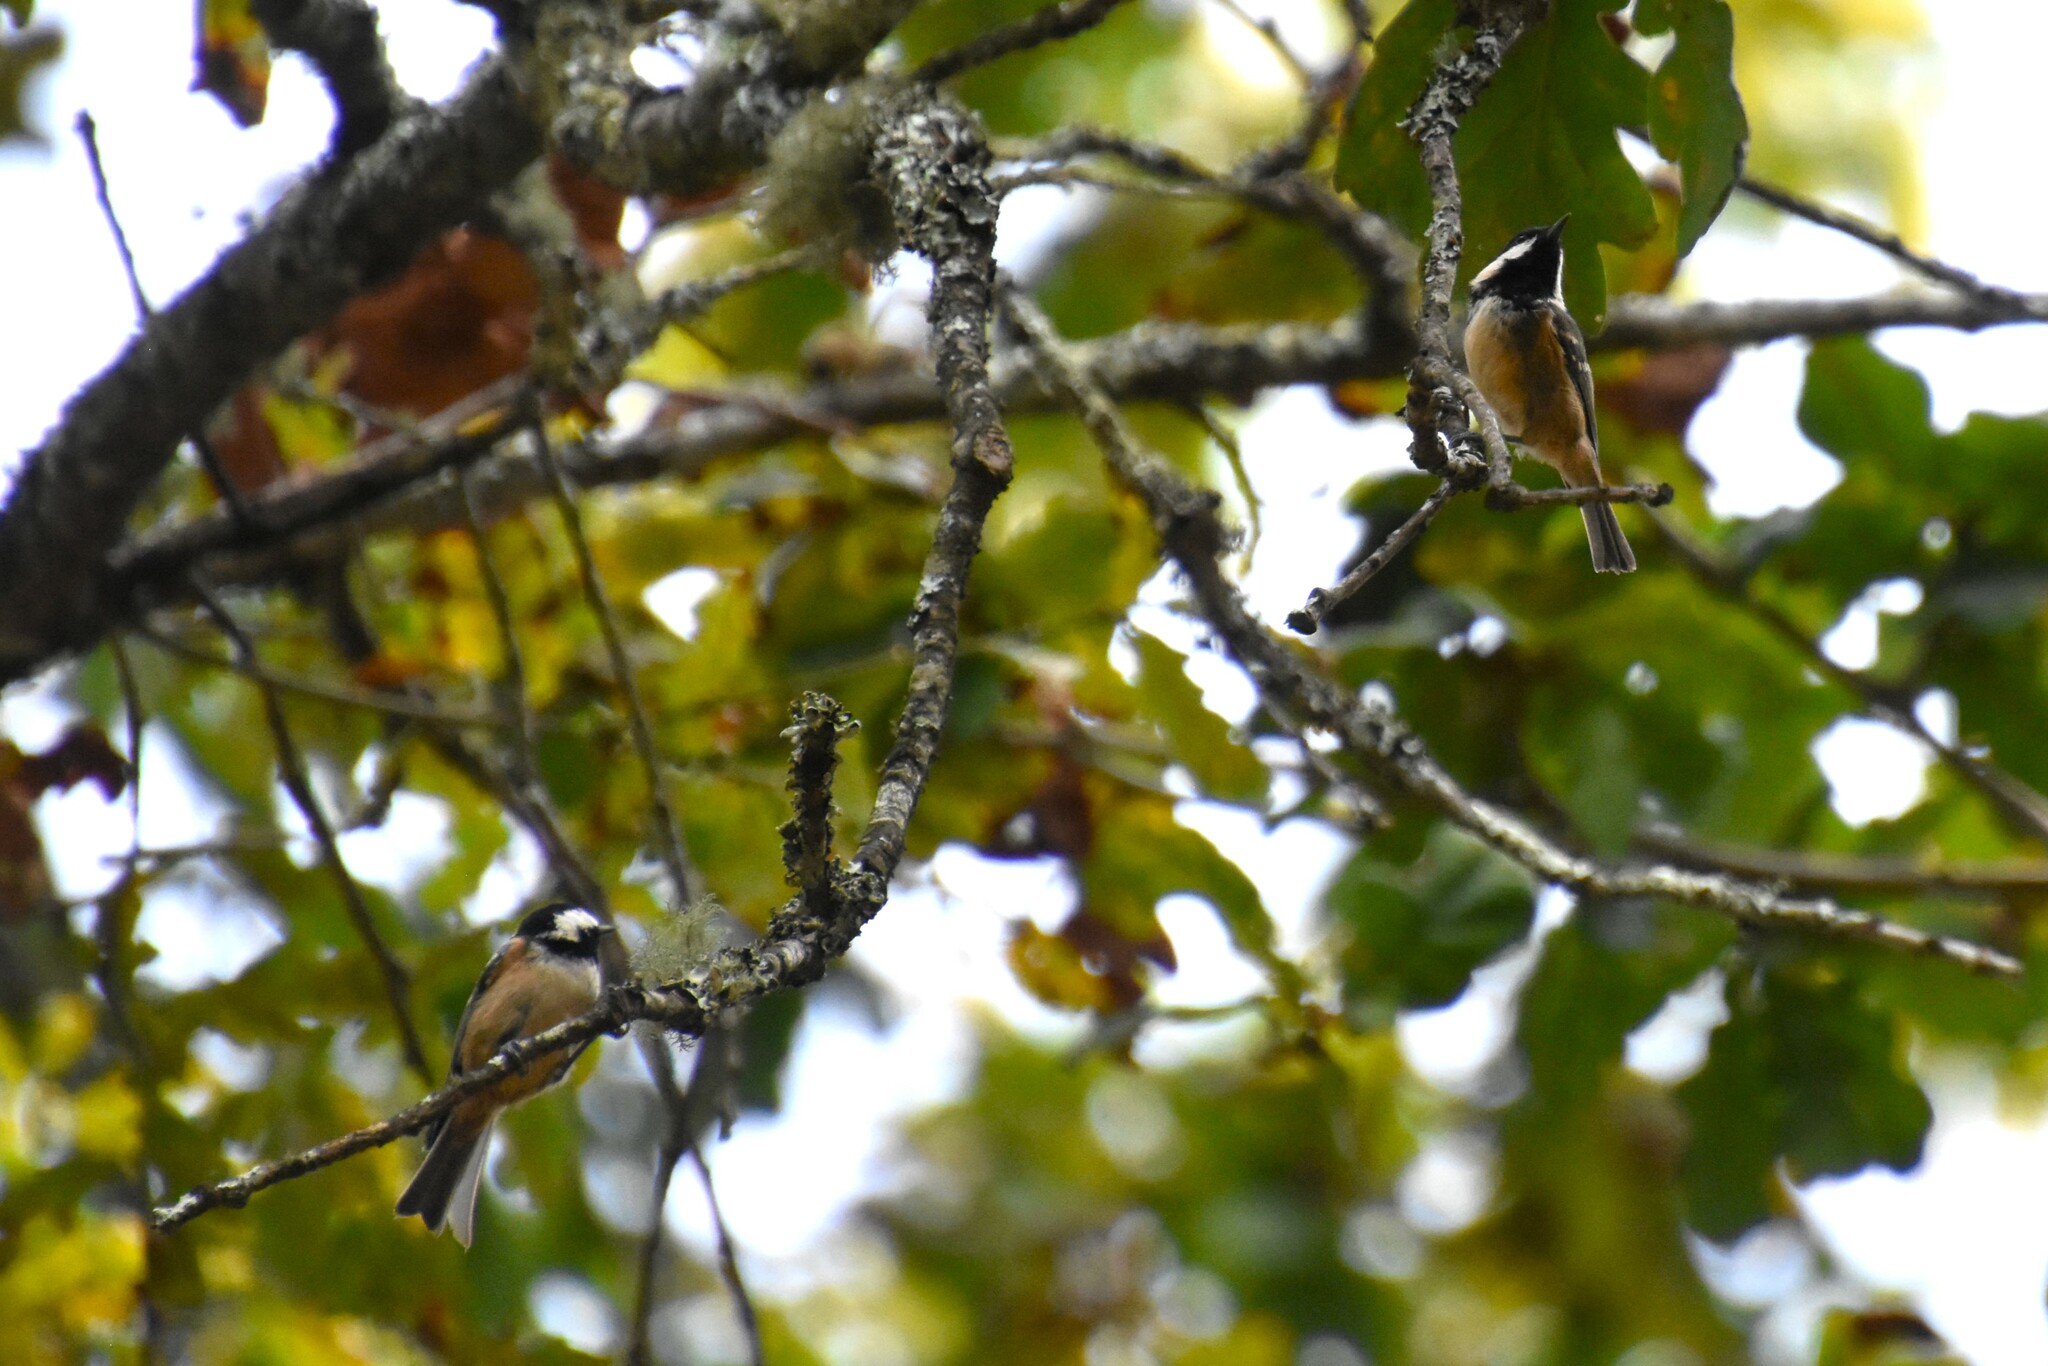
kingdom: Animalia
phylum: Chordata
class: Aves
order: Passeriformes
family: Paridae
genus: Periparus
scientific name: Periparus ater
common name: Coal tit
